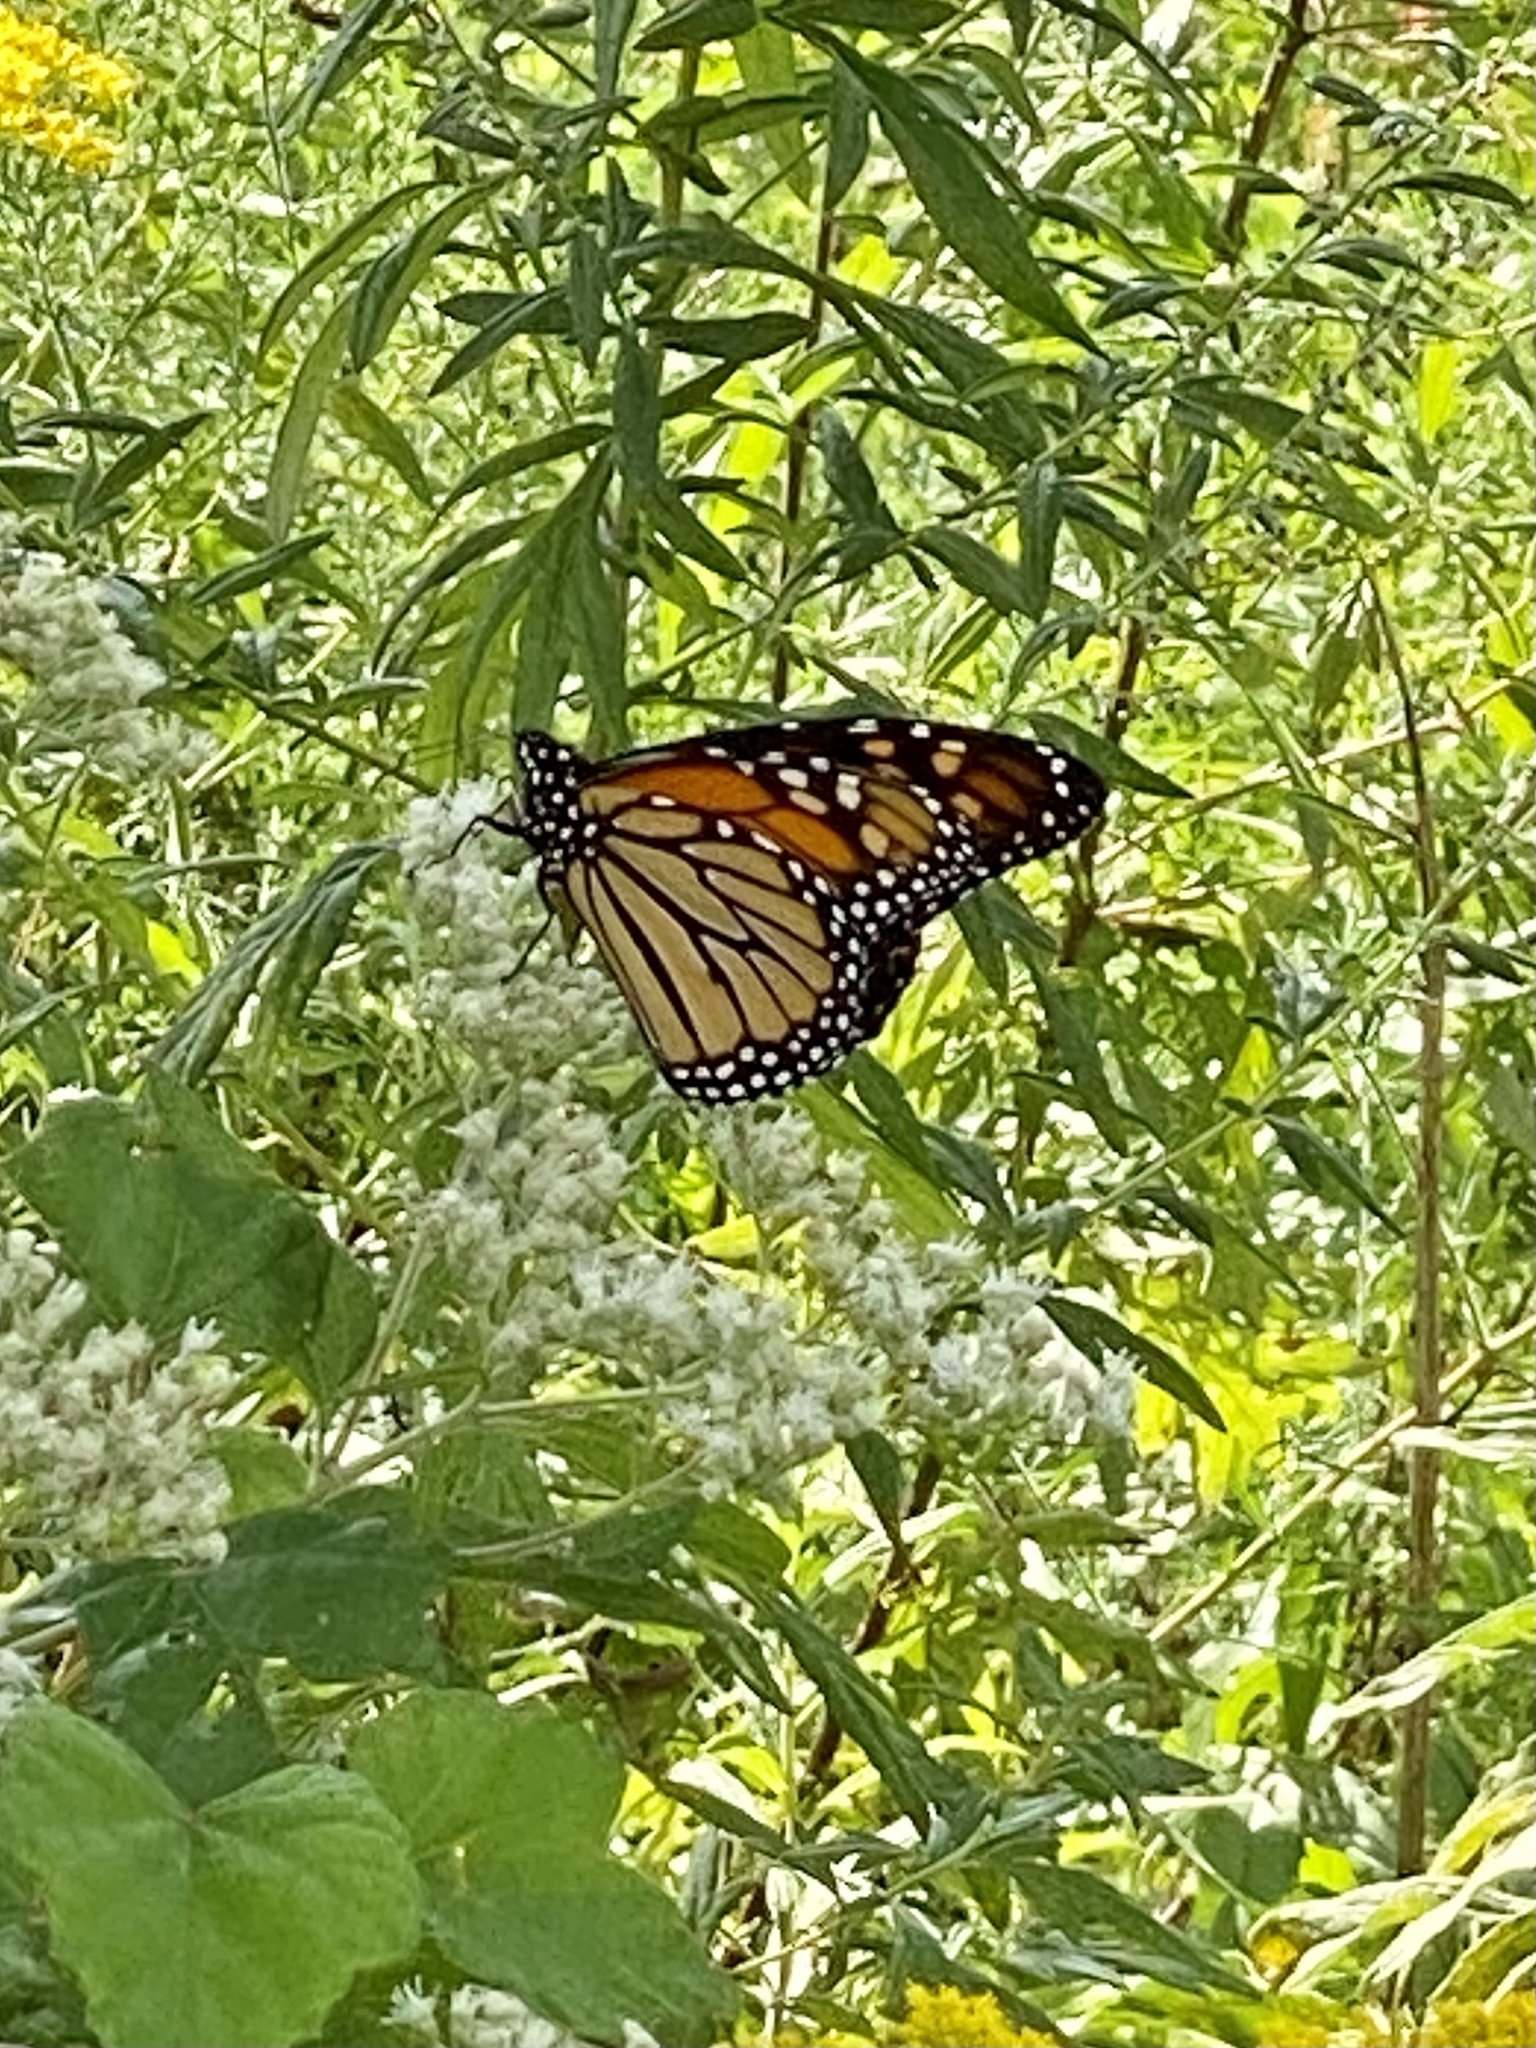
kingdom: Animalia
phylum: Arthropoda
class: Insecta
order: Lepidoptera
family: Nymphalidae
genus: Danaus
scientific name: Danaus plexippus
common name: Monarch
